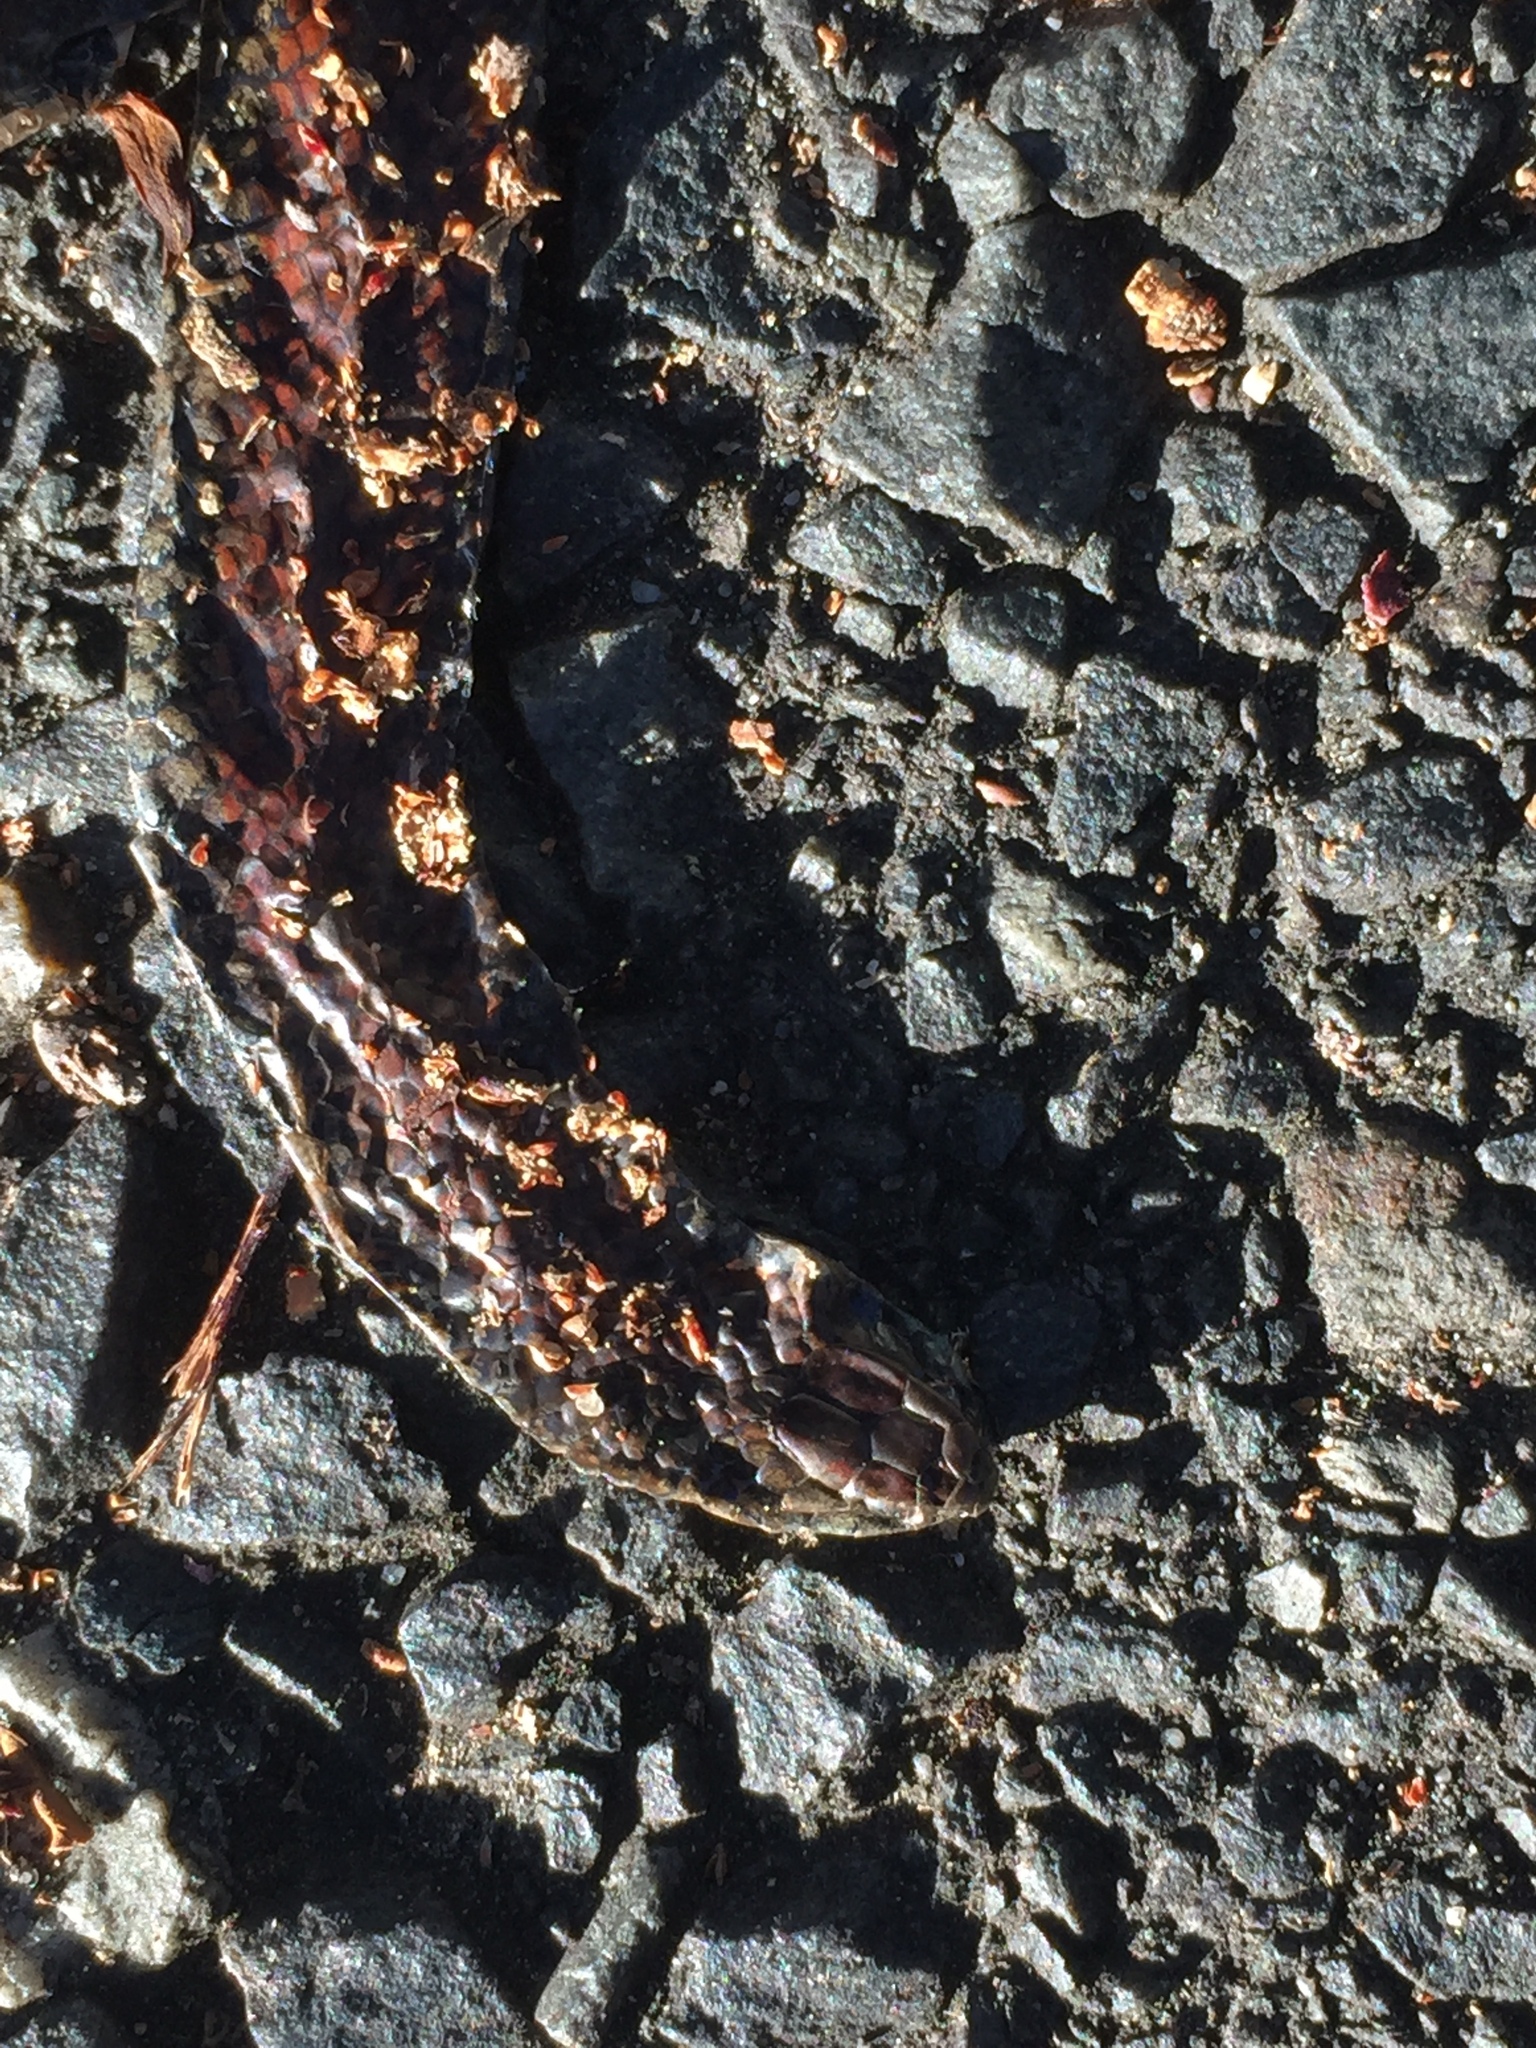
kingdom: Animalia
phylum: Chordata
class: Squamata
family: Pseudoxyrhophiidae
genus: Duberria
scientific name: Duberria lutrix
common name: Common slug eater
